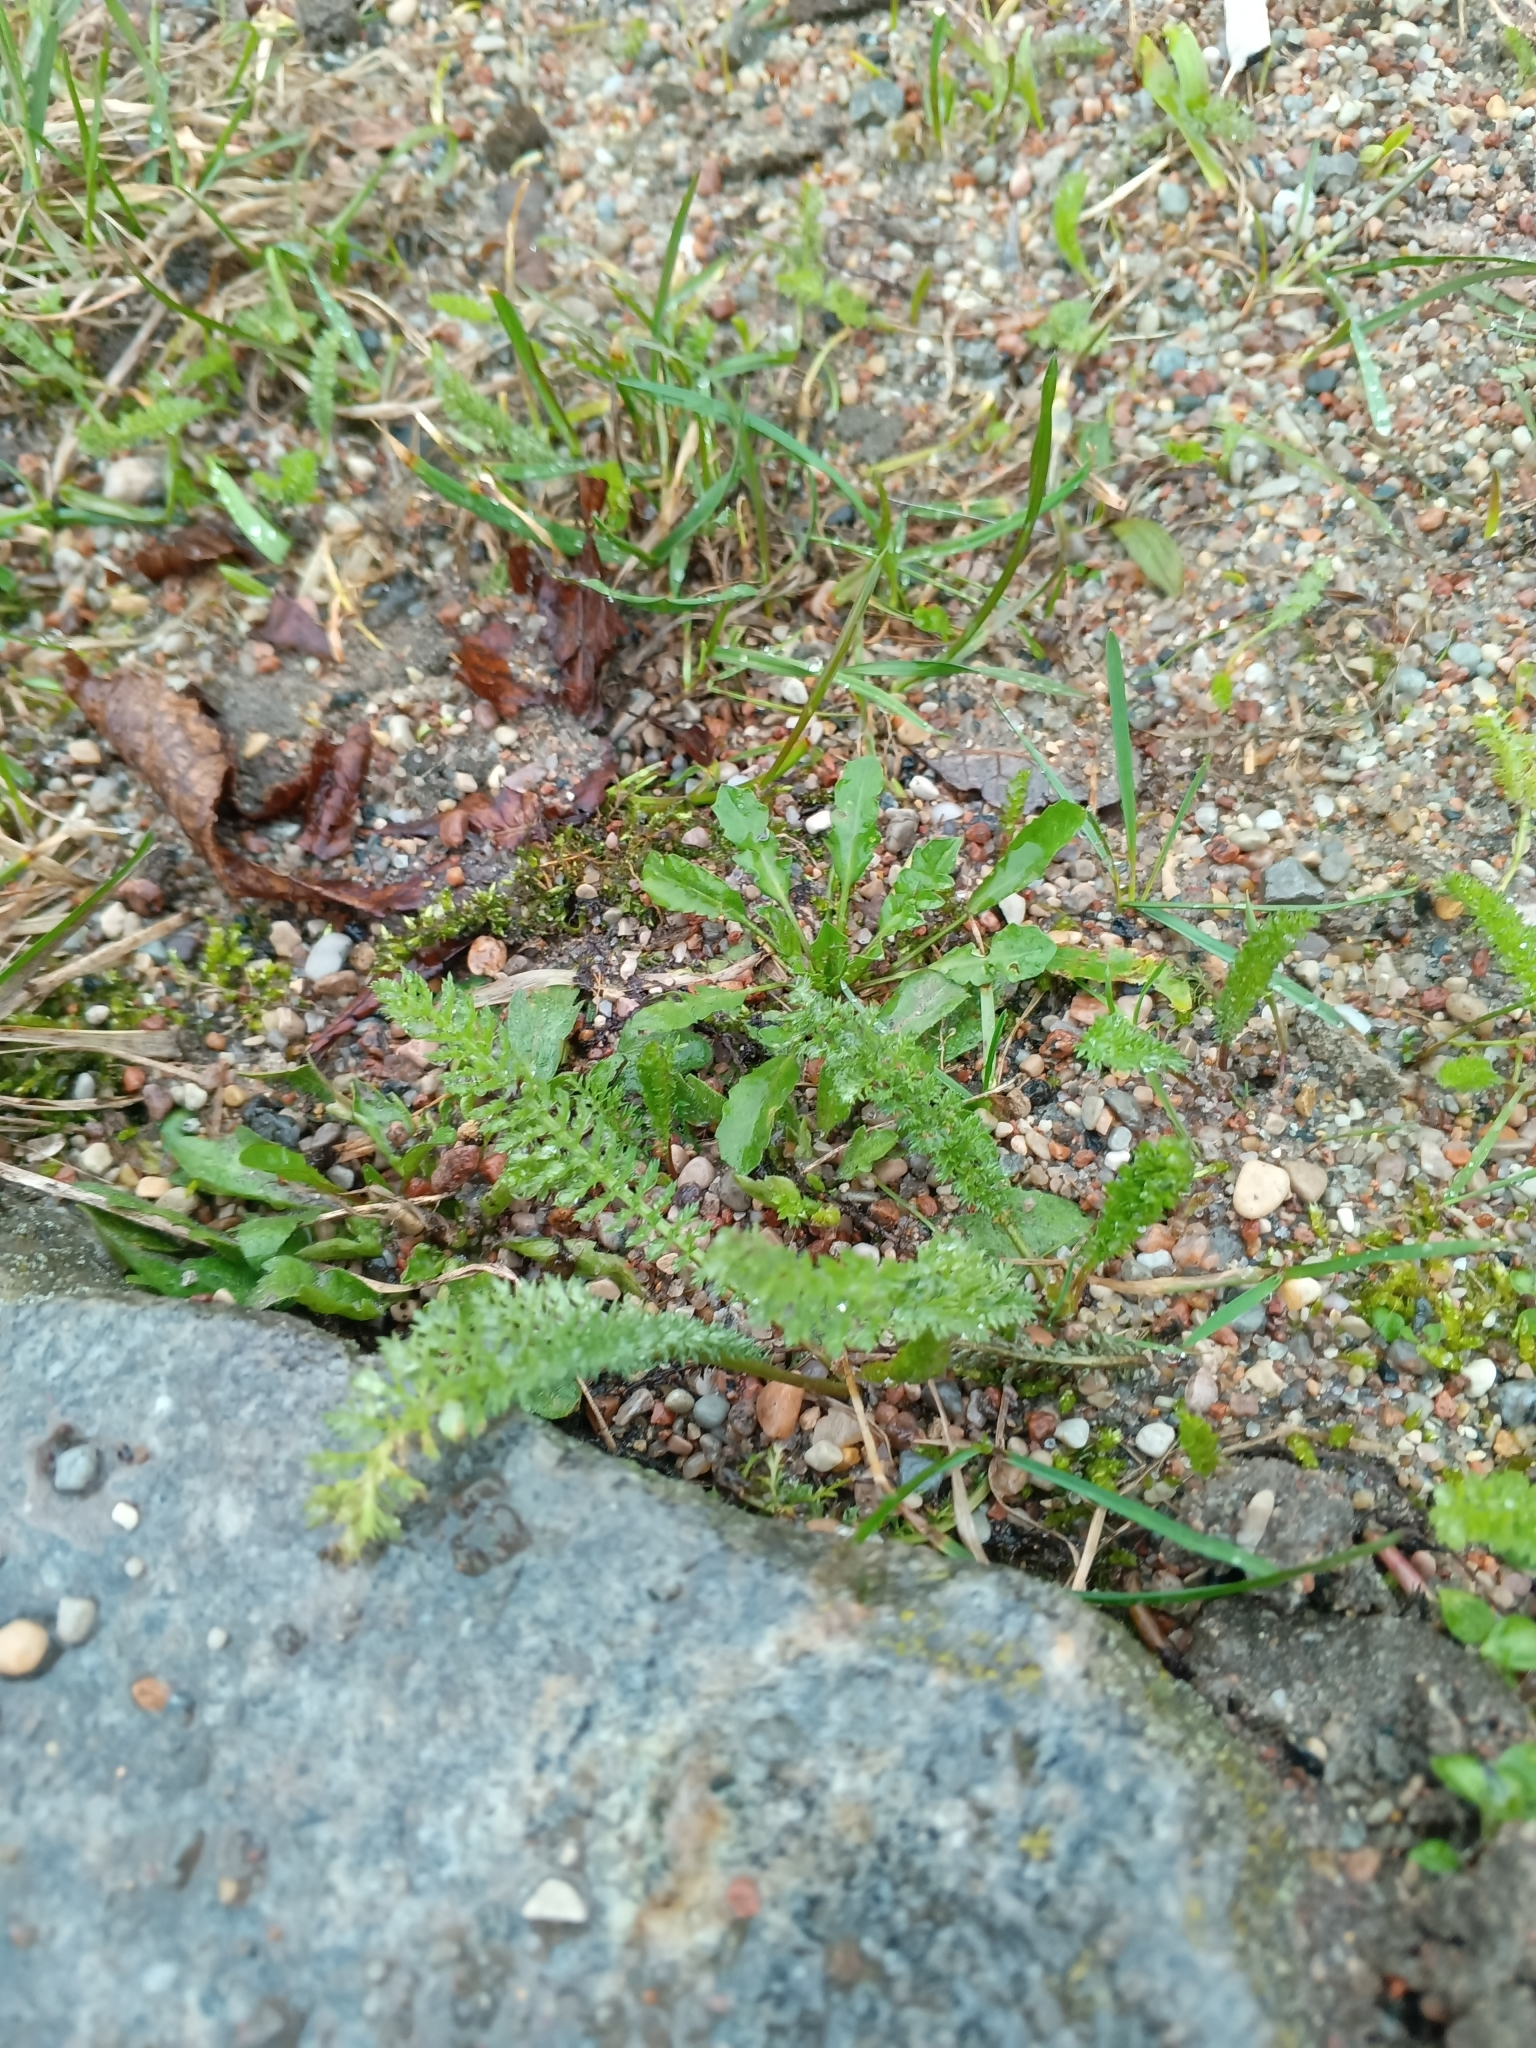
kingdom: Plantae
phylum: Tracheophyta
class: Magnoliopsida
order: Asterales
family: Asteraceae
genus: Achillea
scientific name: Achillea millefolium
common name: Yarrow
